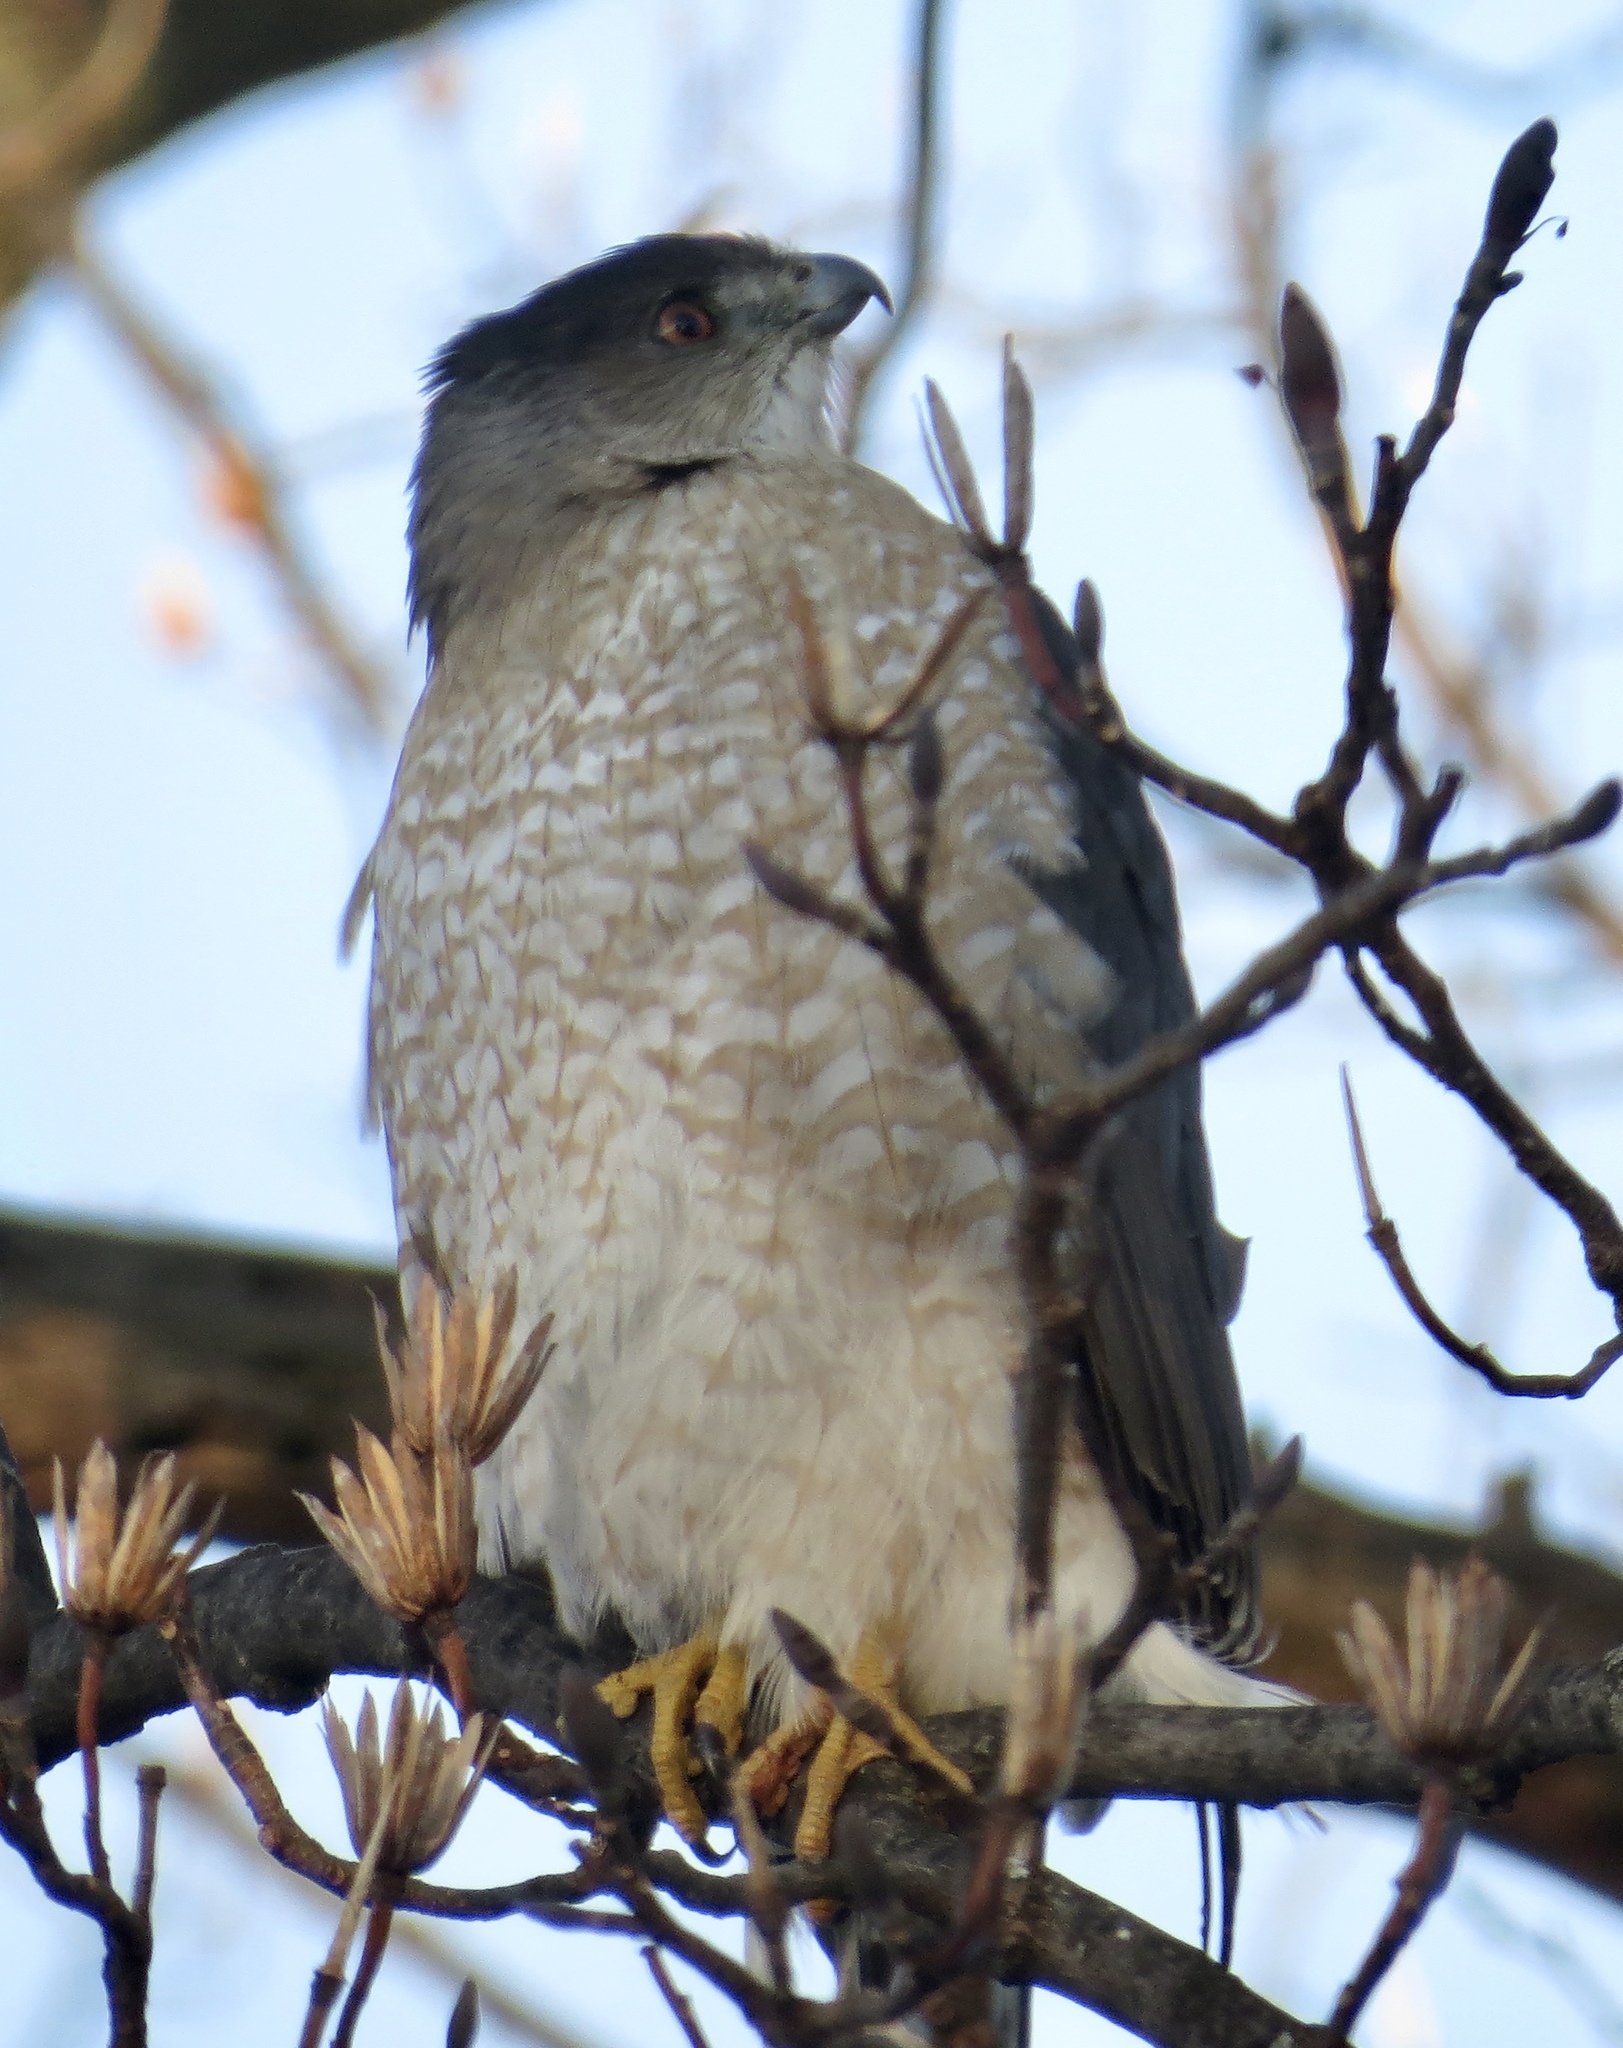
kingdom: Animalia
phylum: Chordata
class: Aves
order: Accipitriformes
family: Accipitridae
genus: Accipiter
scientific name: Accipiter cooperii
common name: Cooper's hawk
